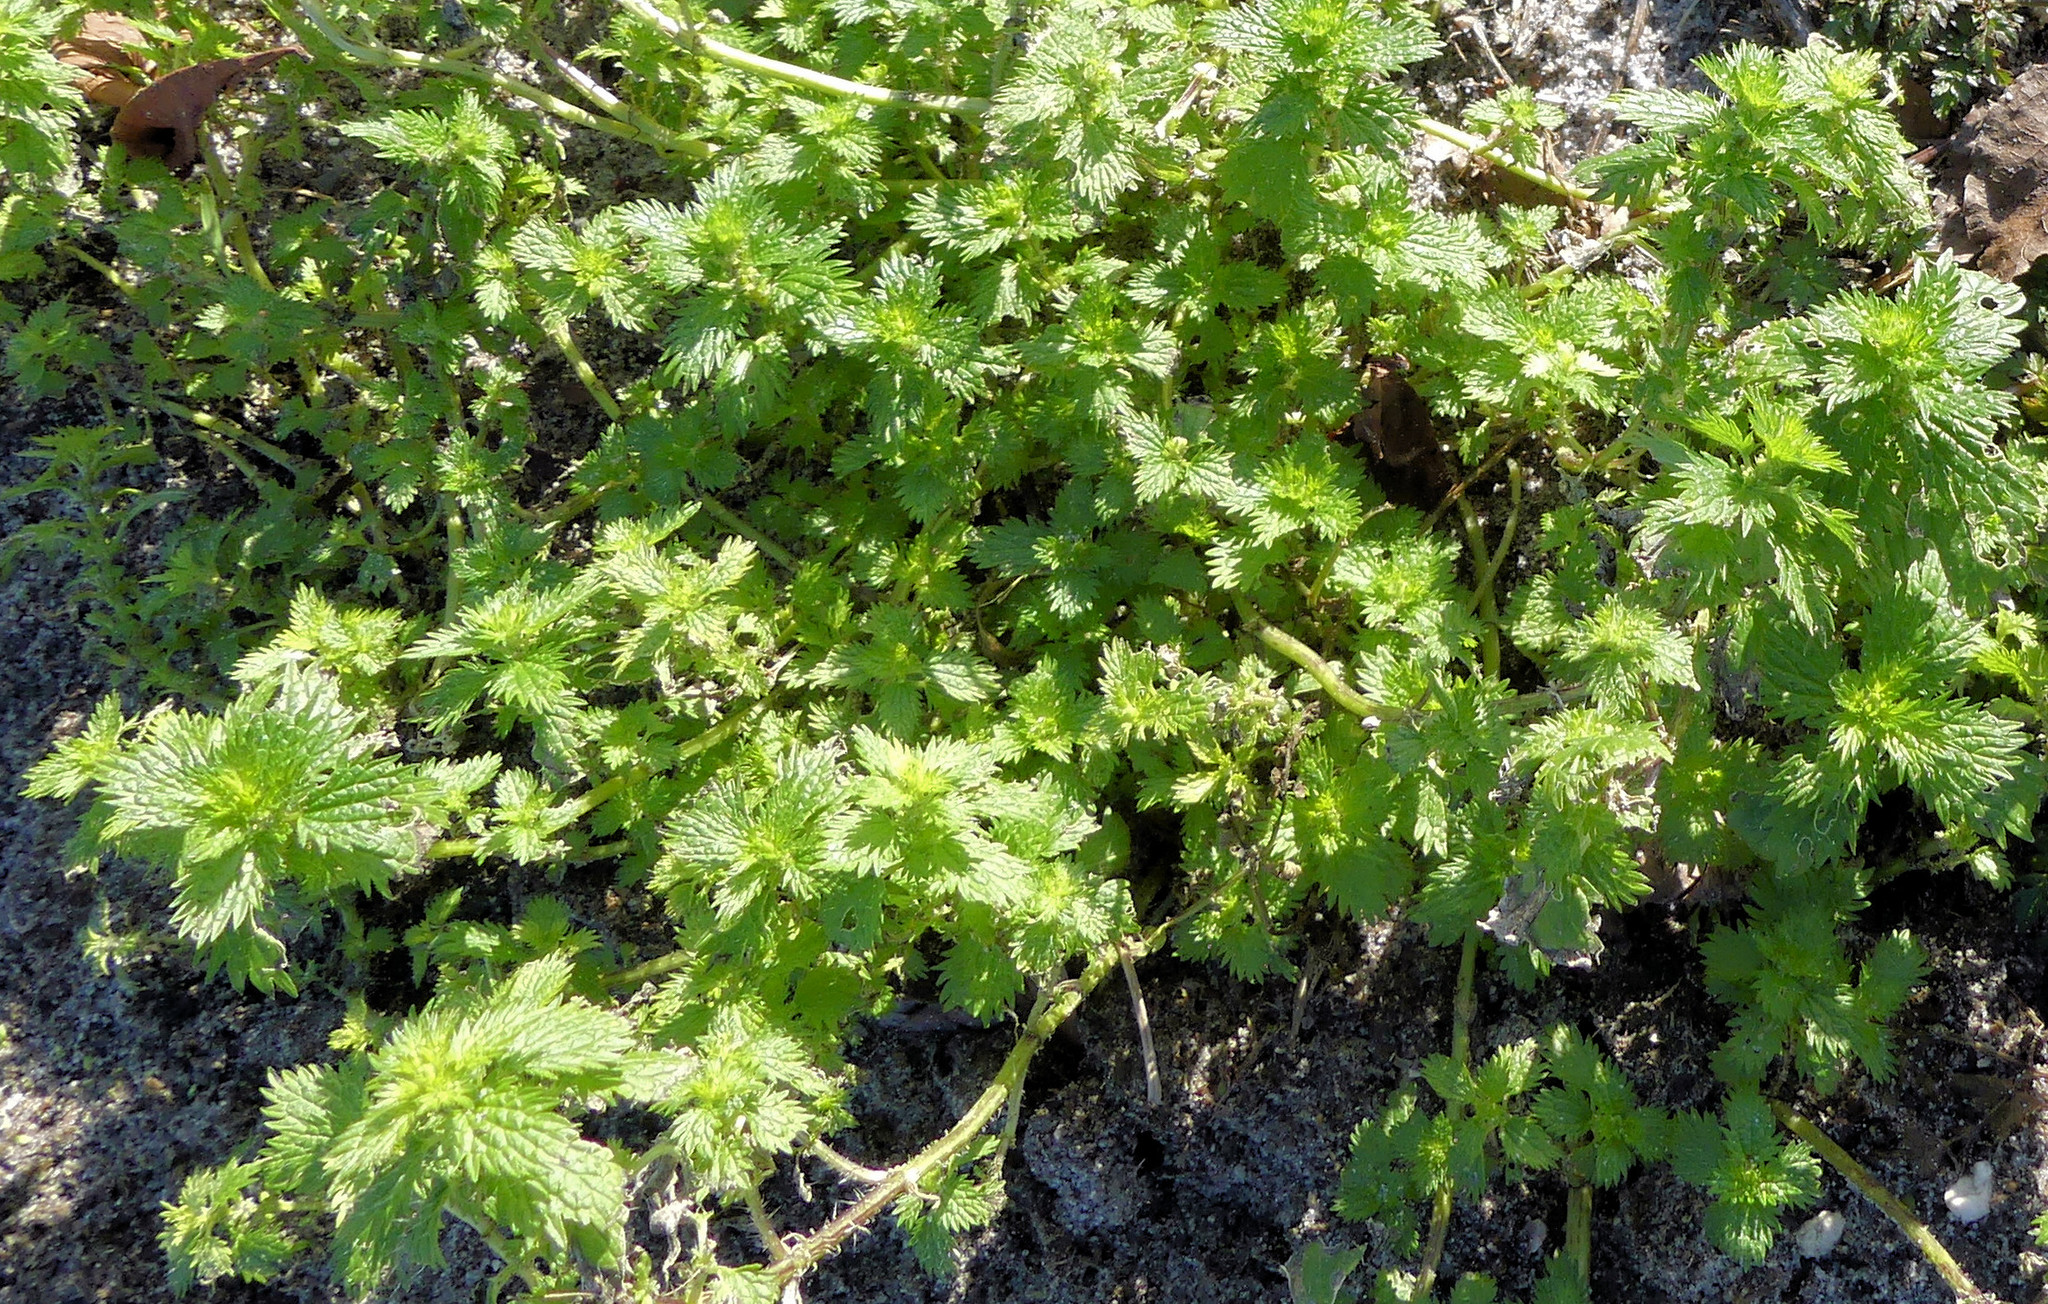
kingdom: Plantae
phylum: Tracheophyta
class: Magnoliopsida
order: Rosales
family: Urticaceae
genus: Urtica
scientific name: Urtica urens
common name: Dwarf nettle
